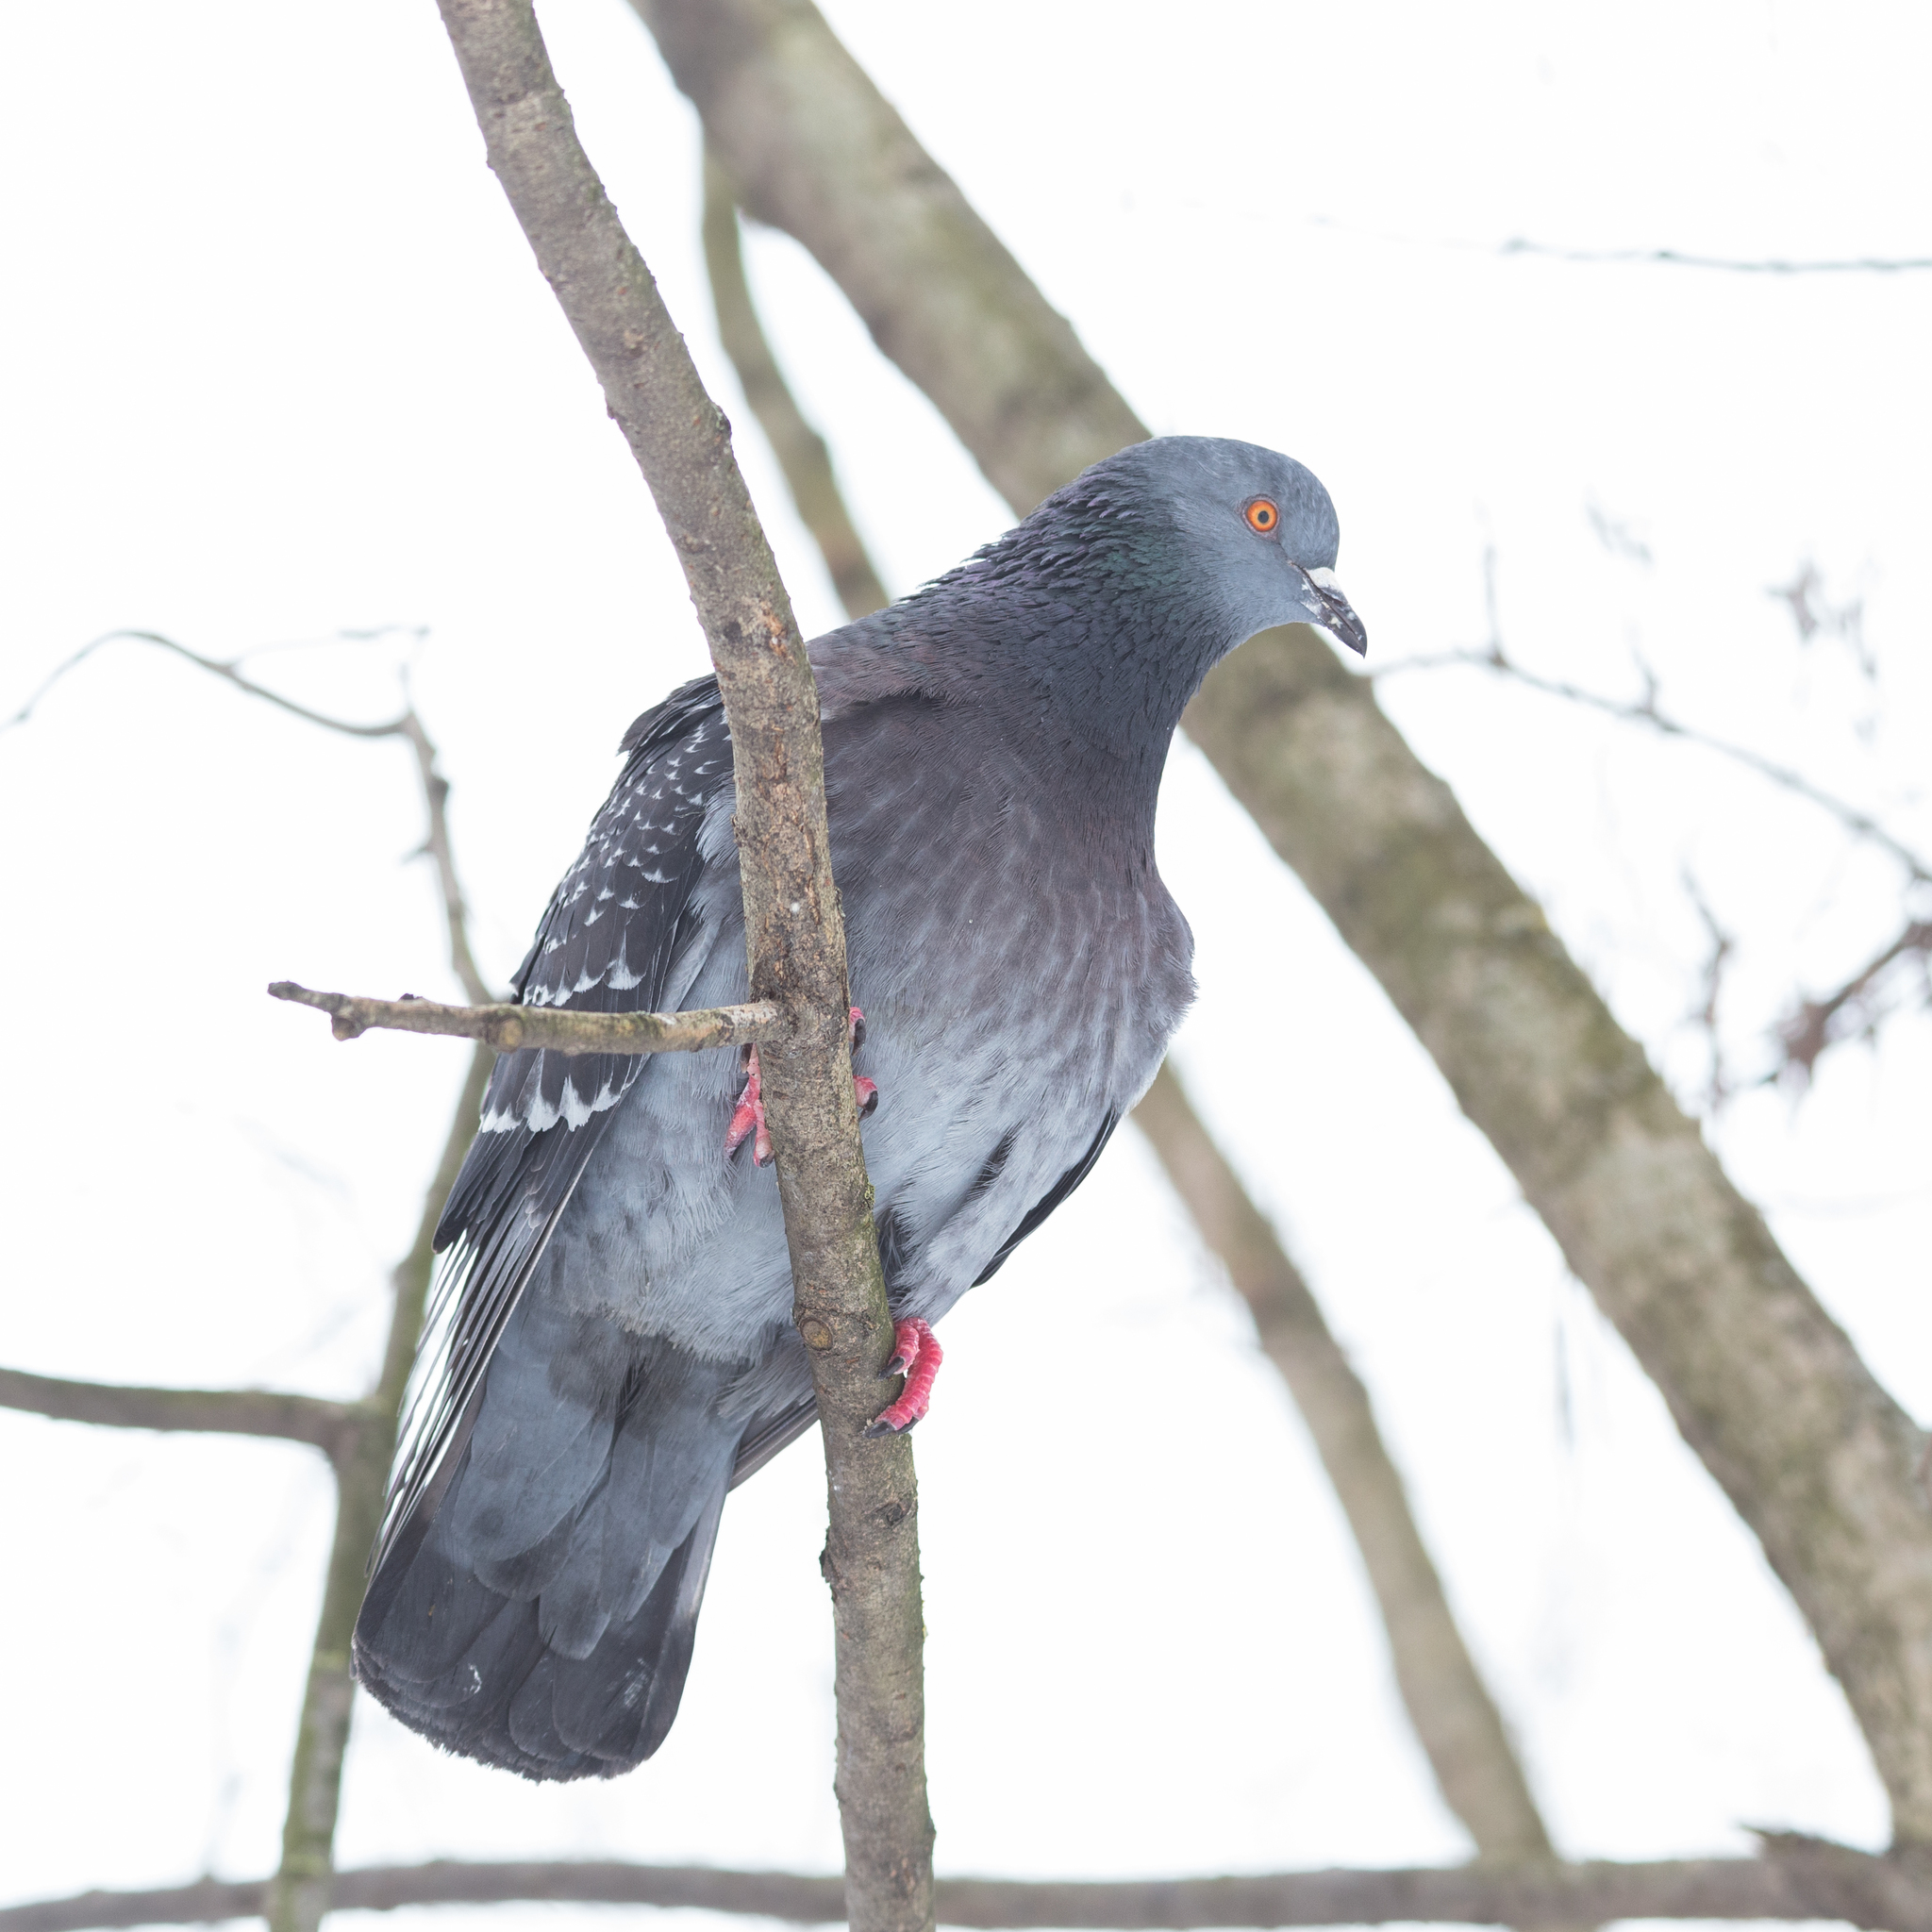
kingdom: Animalia
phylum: Chordata
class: Aves
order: Columbiformes
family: Columbidae
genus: Columba
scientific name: Columba livia
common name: Rock pigeon
